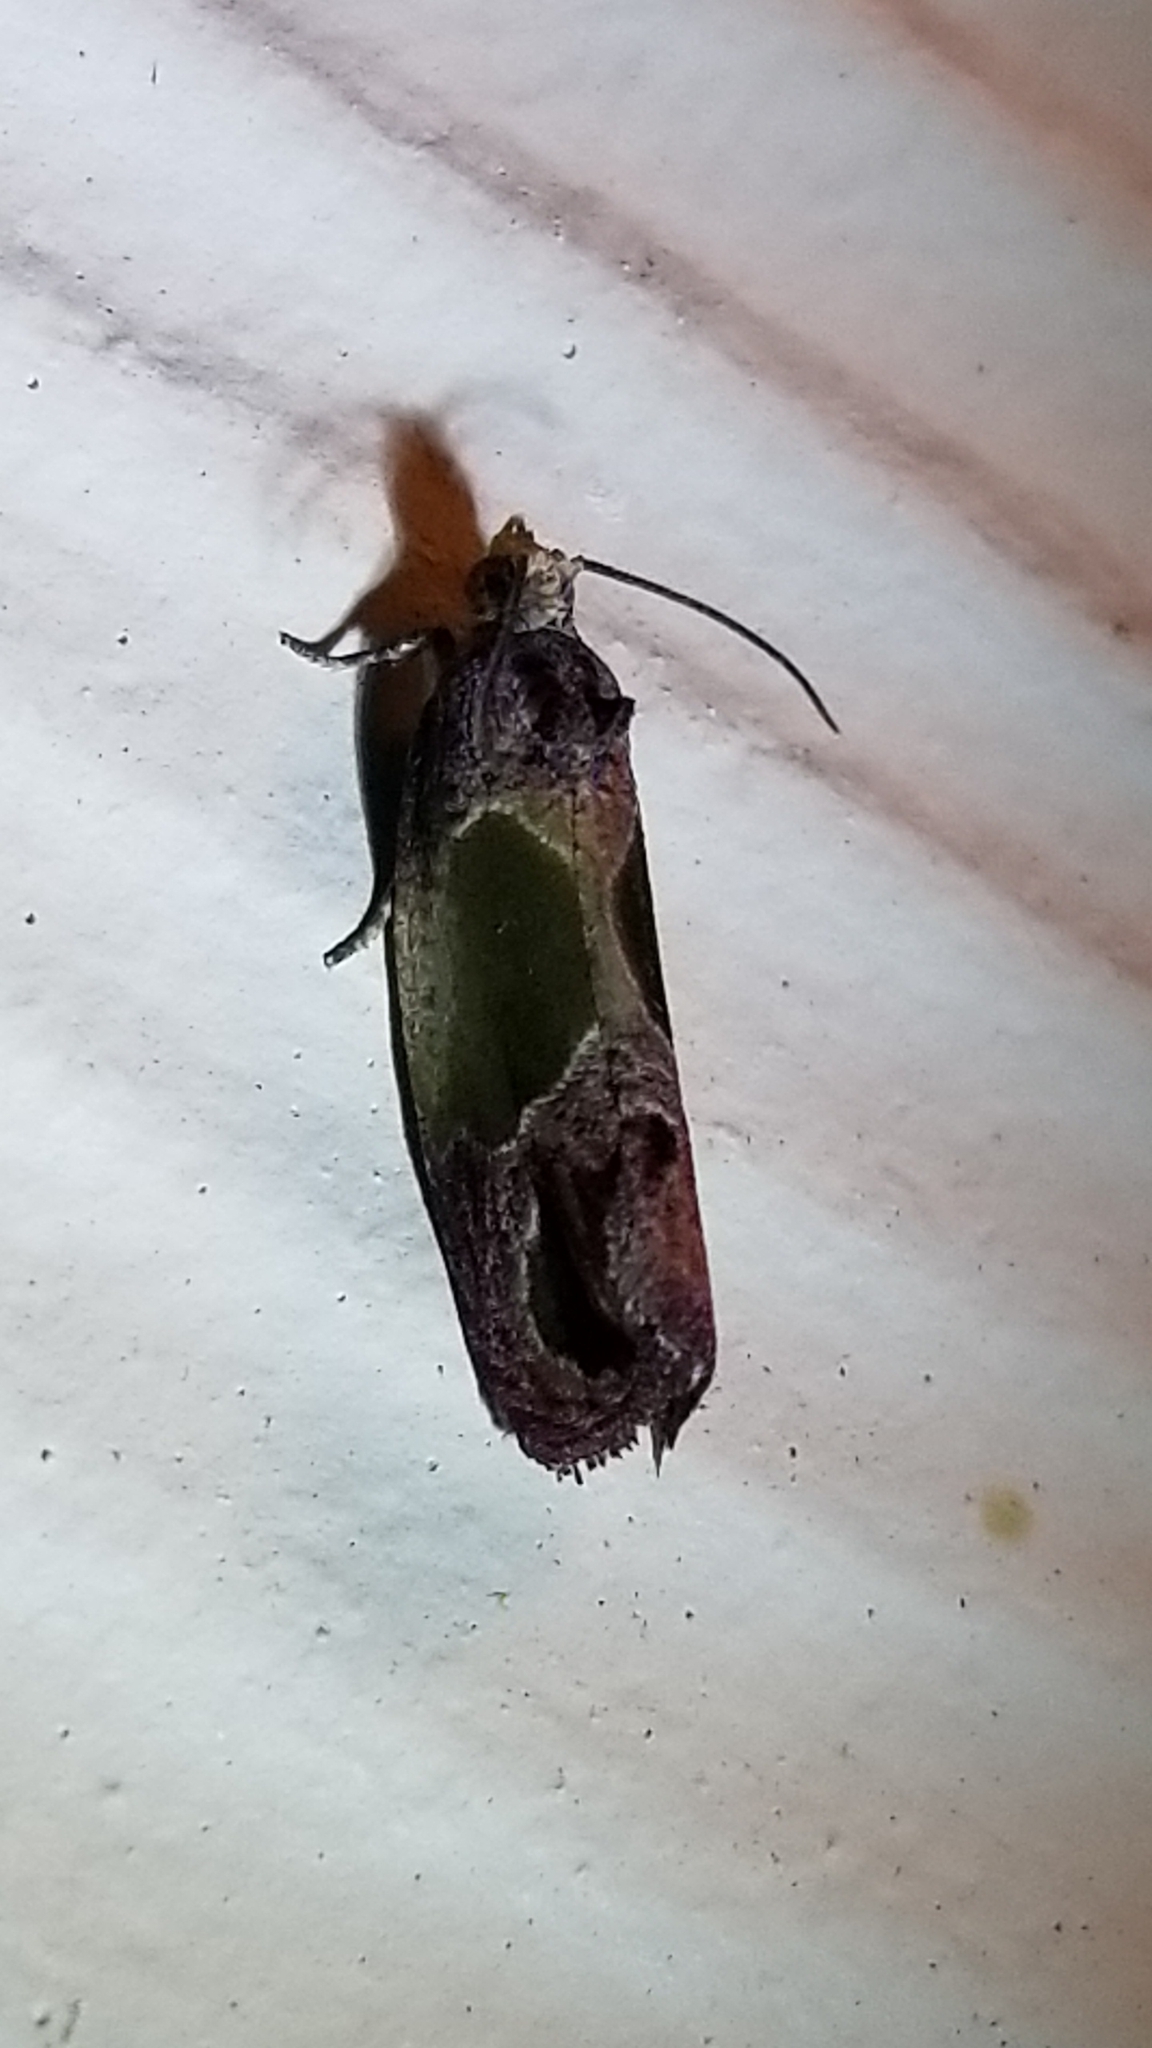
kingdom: Animalia
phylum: Arthropoda
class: Insecta
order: Lepidoptera
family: Tortricidae
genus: Eumarozia
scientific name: Eumarozia malachitana
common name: Sculptured moth
